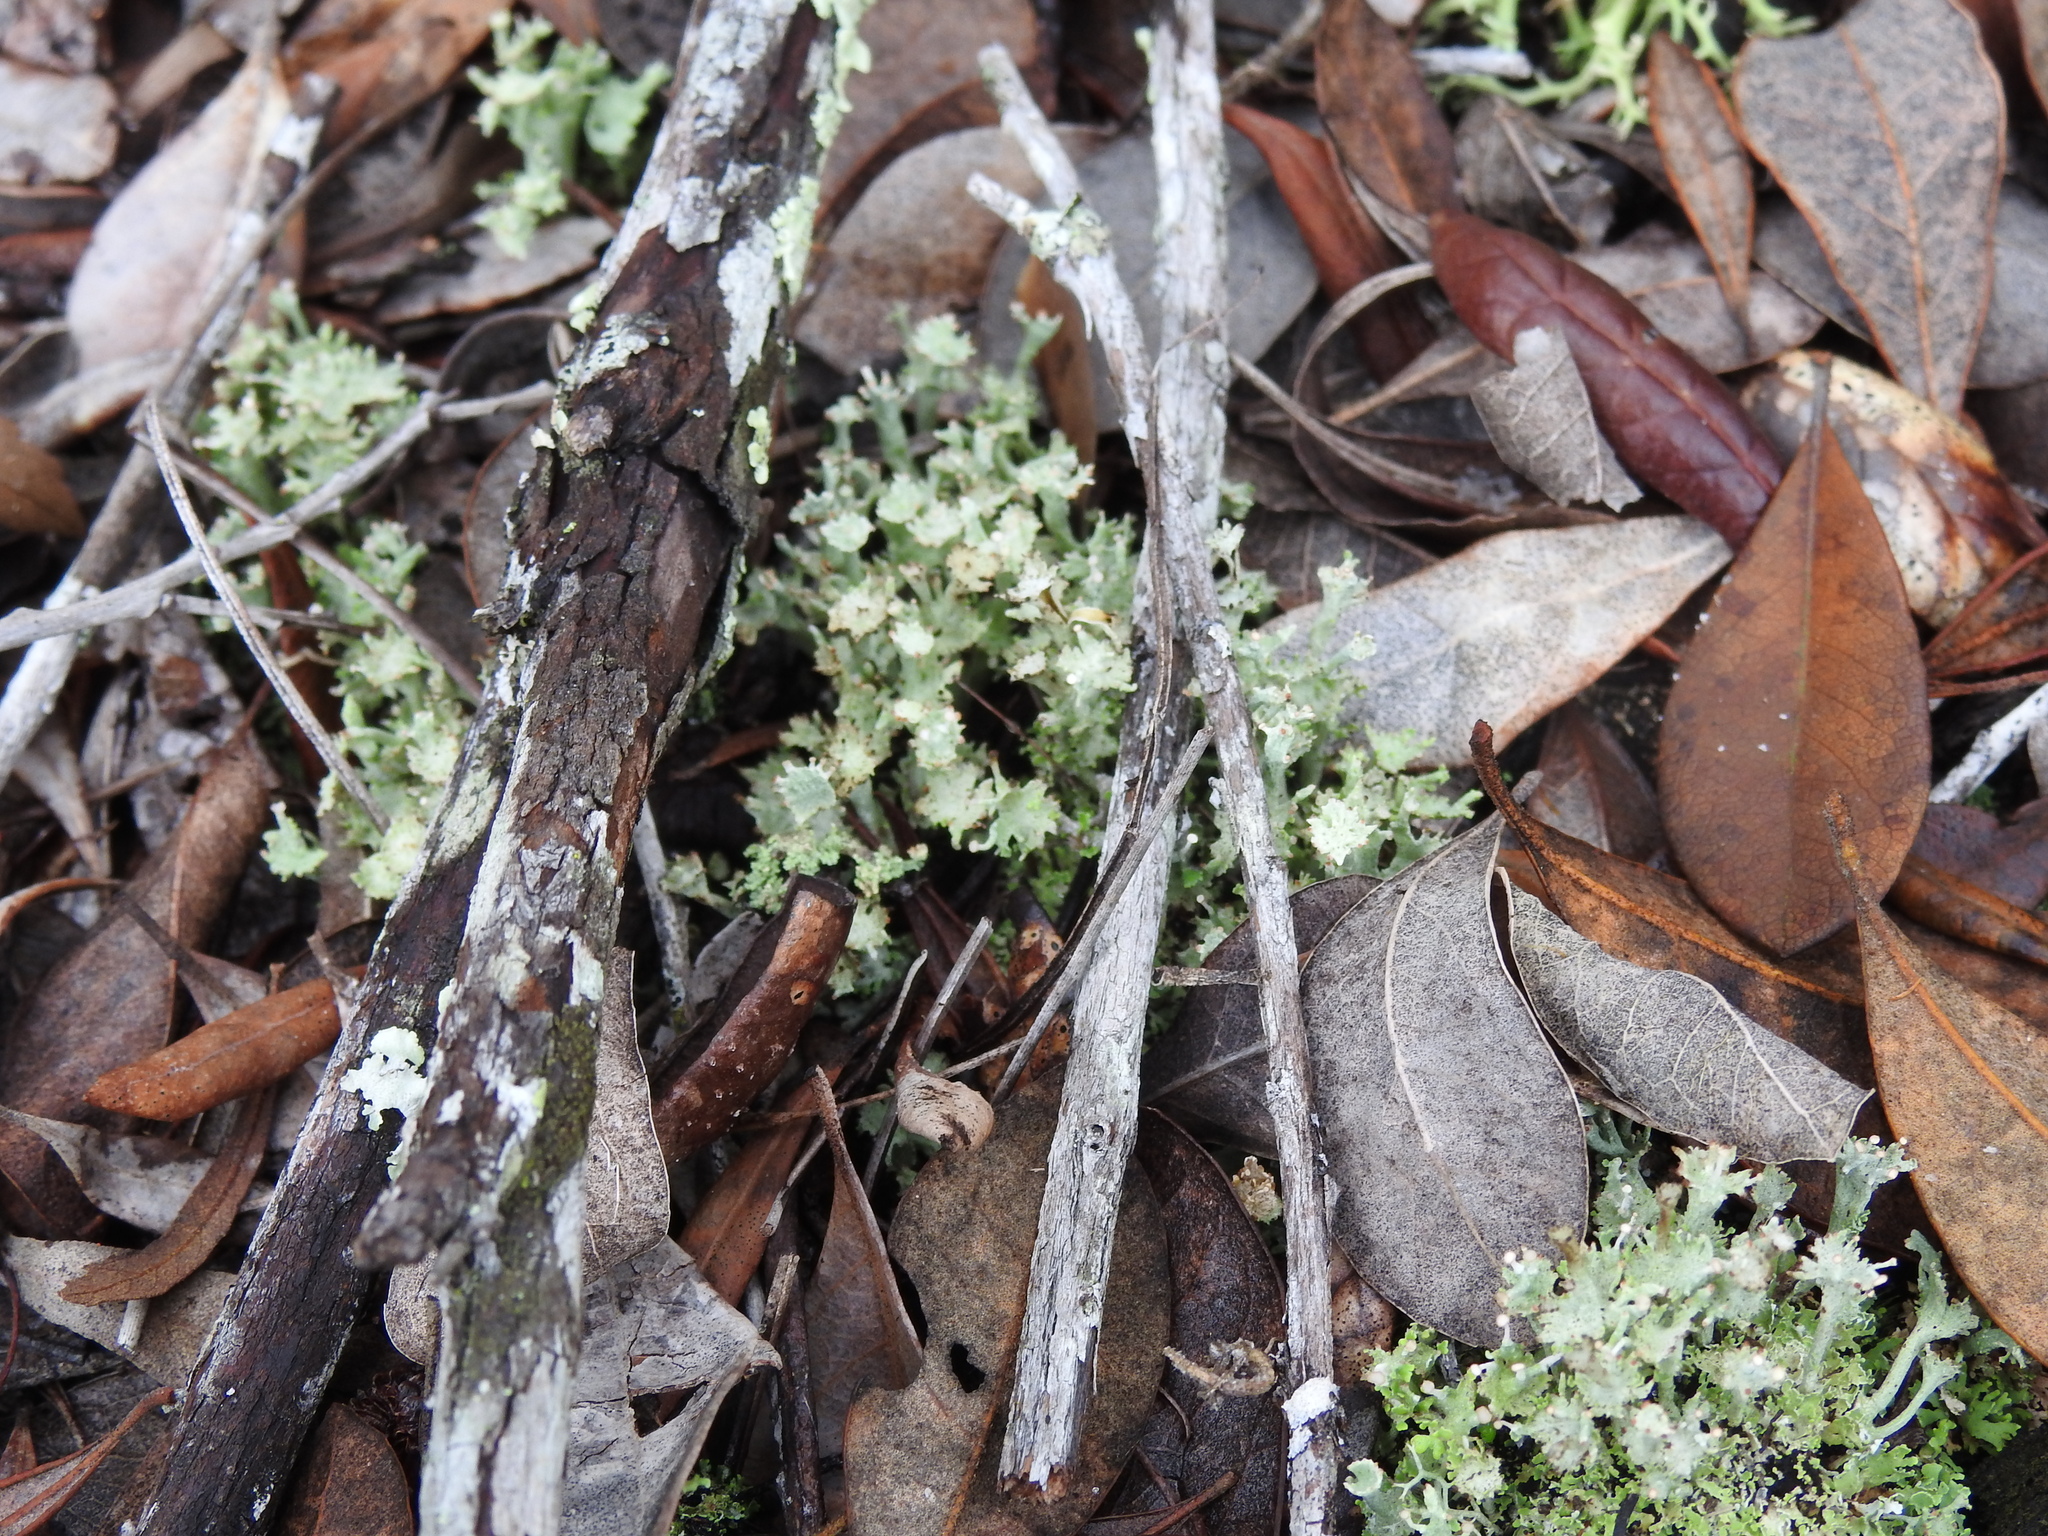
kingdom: Fungi
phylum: Ascomycota
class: Lecanoromycetes
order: Lecanorales
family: Cladoniaceae
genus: Cladonia
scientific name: Cladonia rappii
